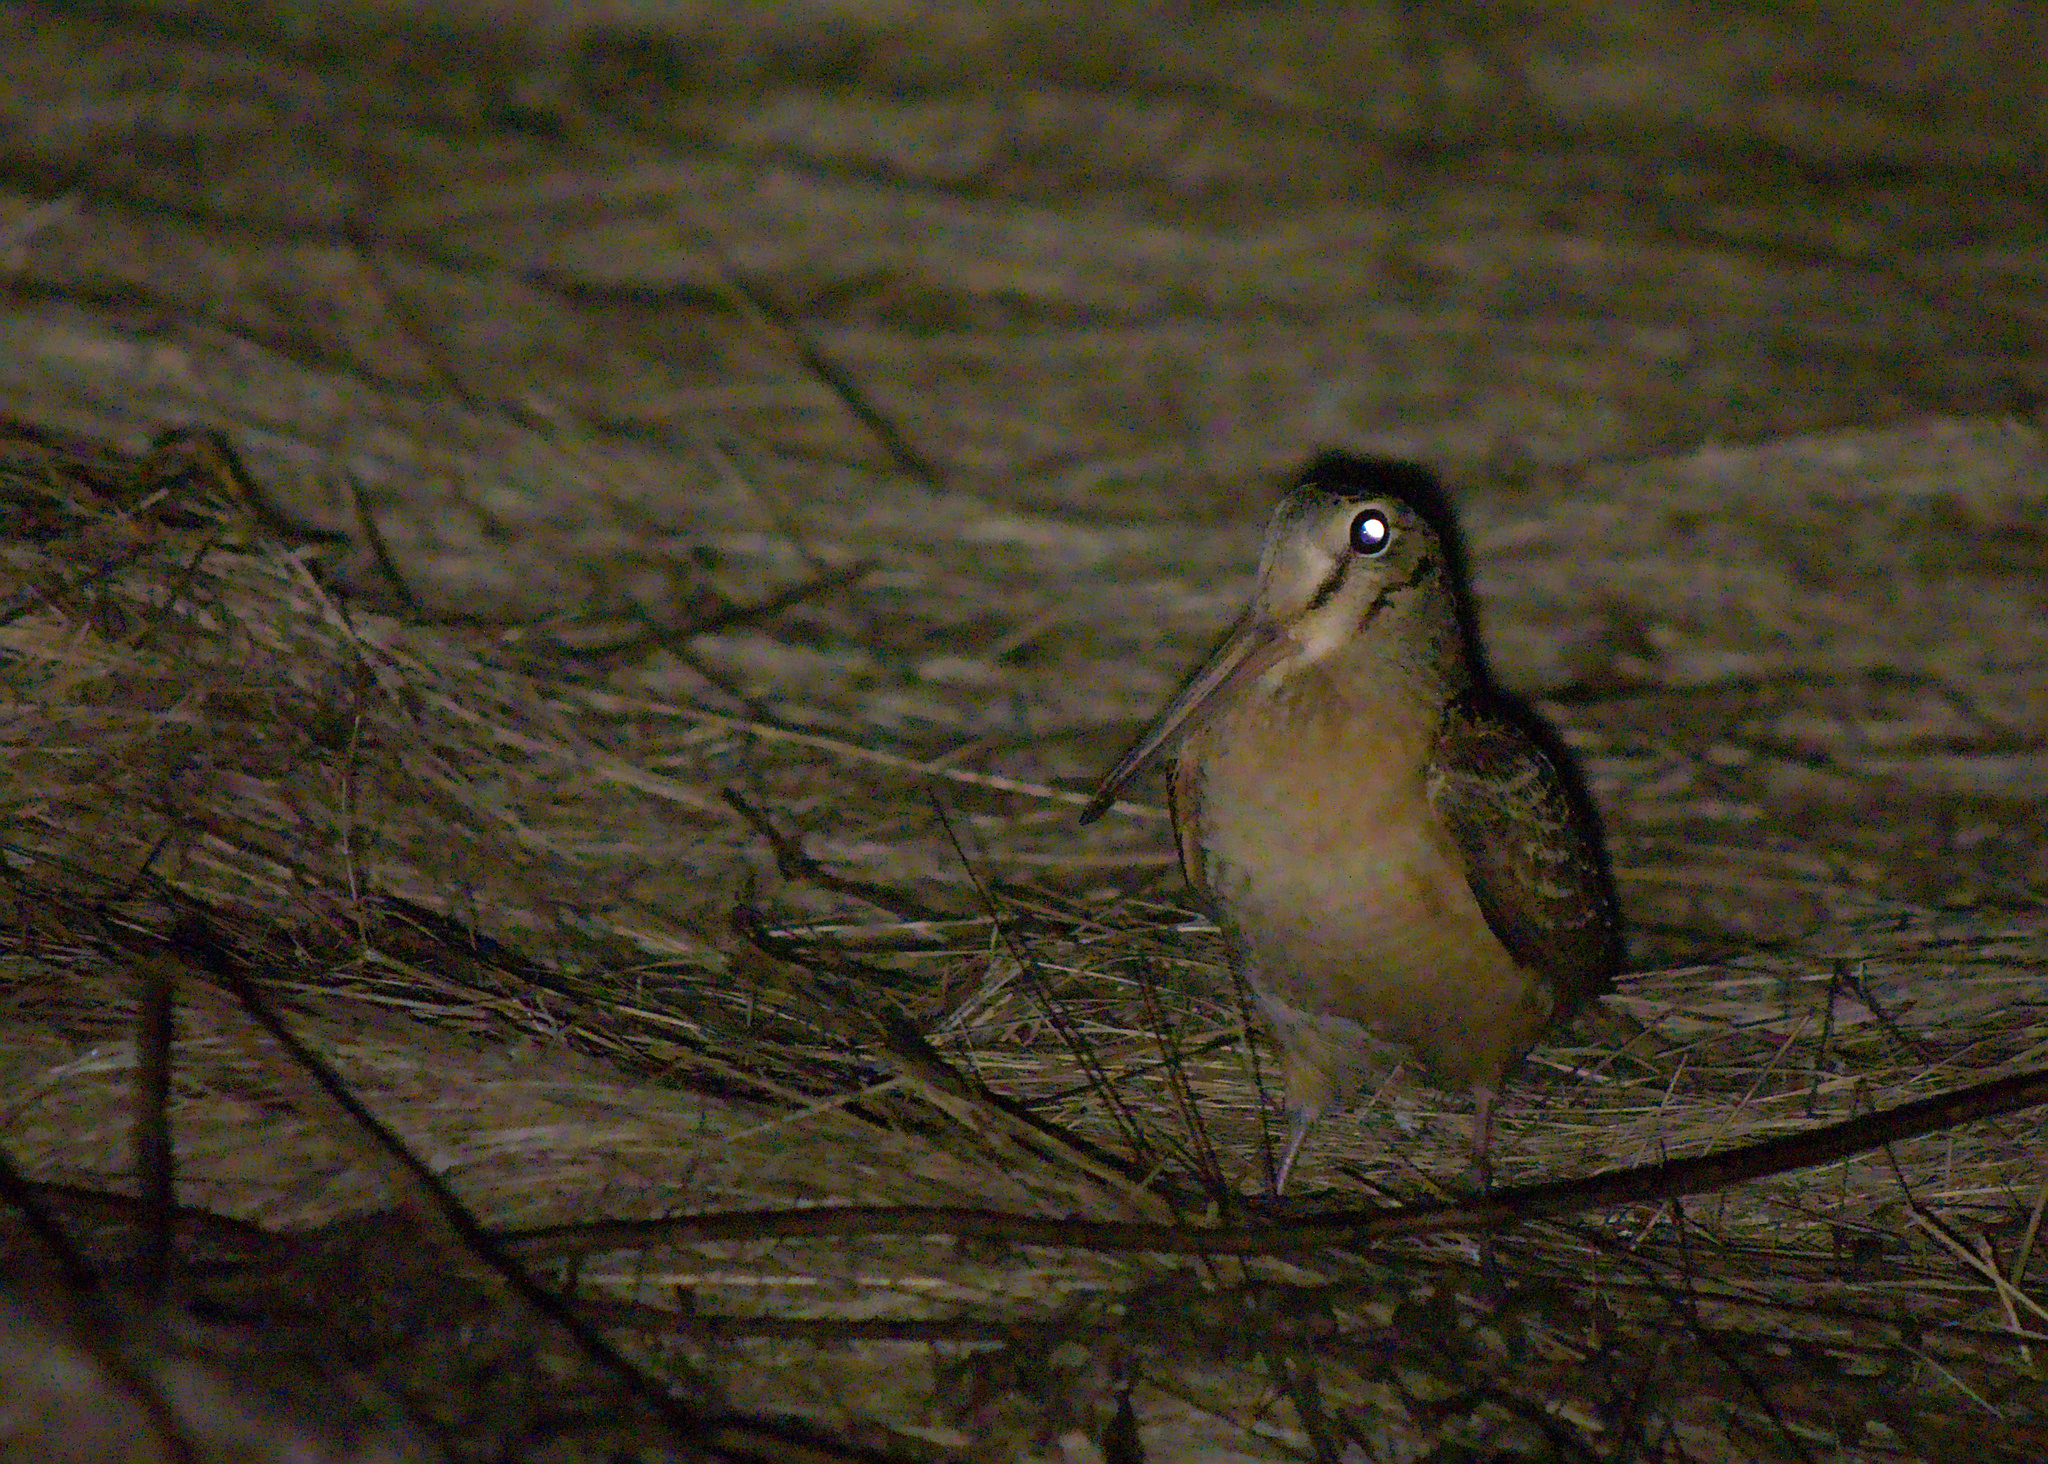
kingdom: Animalia
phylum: Chordata
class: Aves
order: Charadriiformes
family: Scolopacidae
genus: Scolopax
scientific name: Scolopax minor
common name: American woodcock
